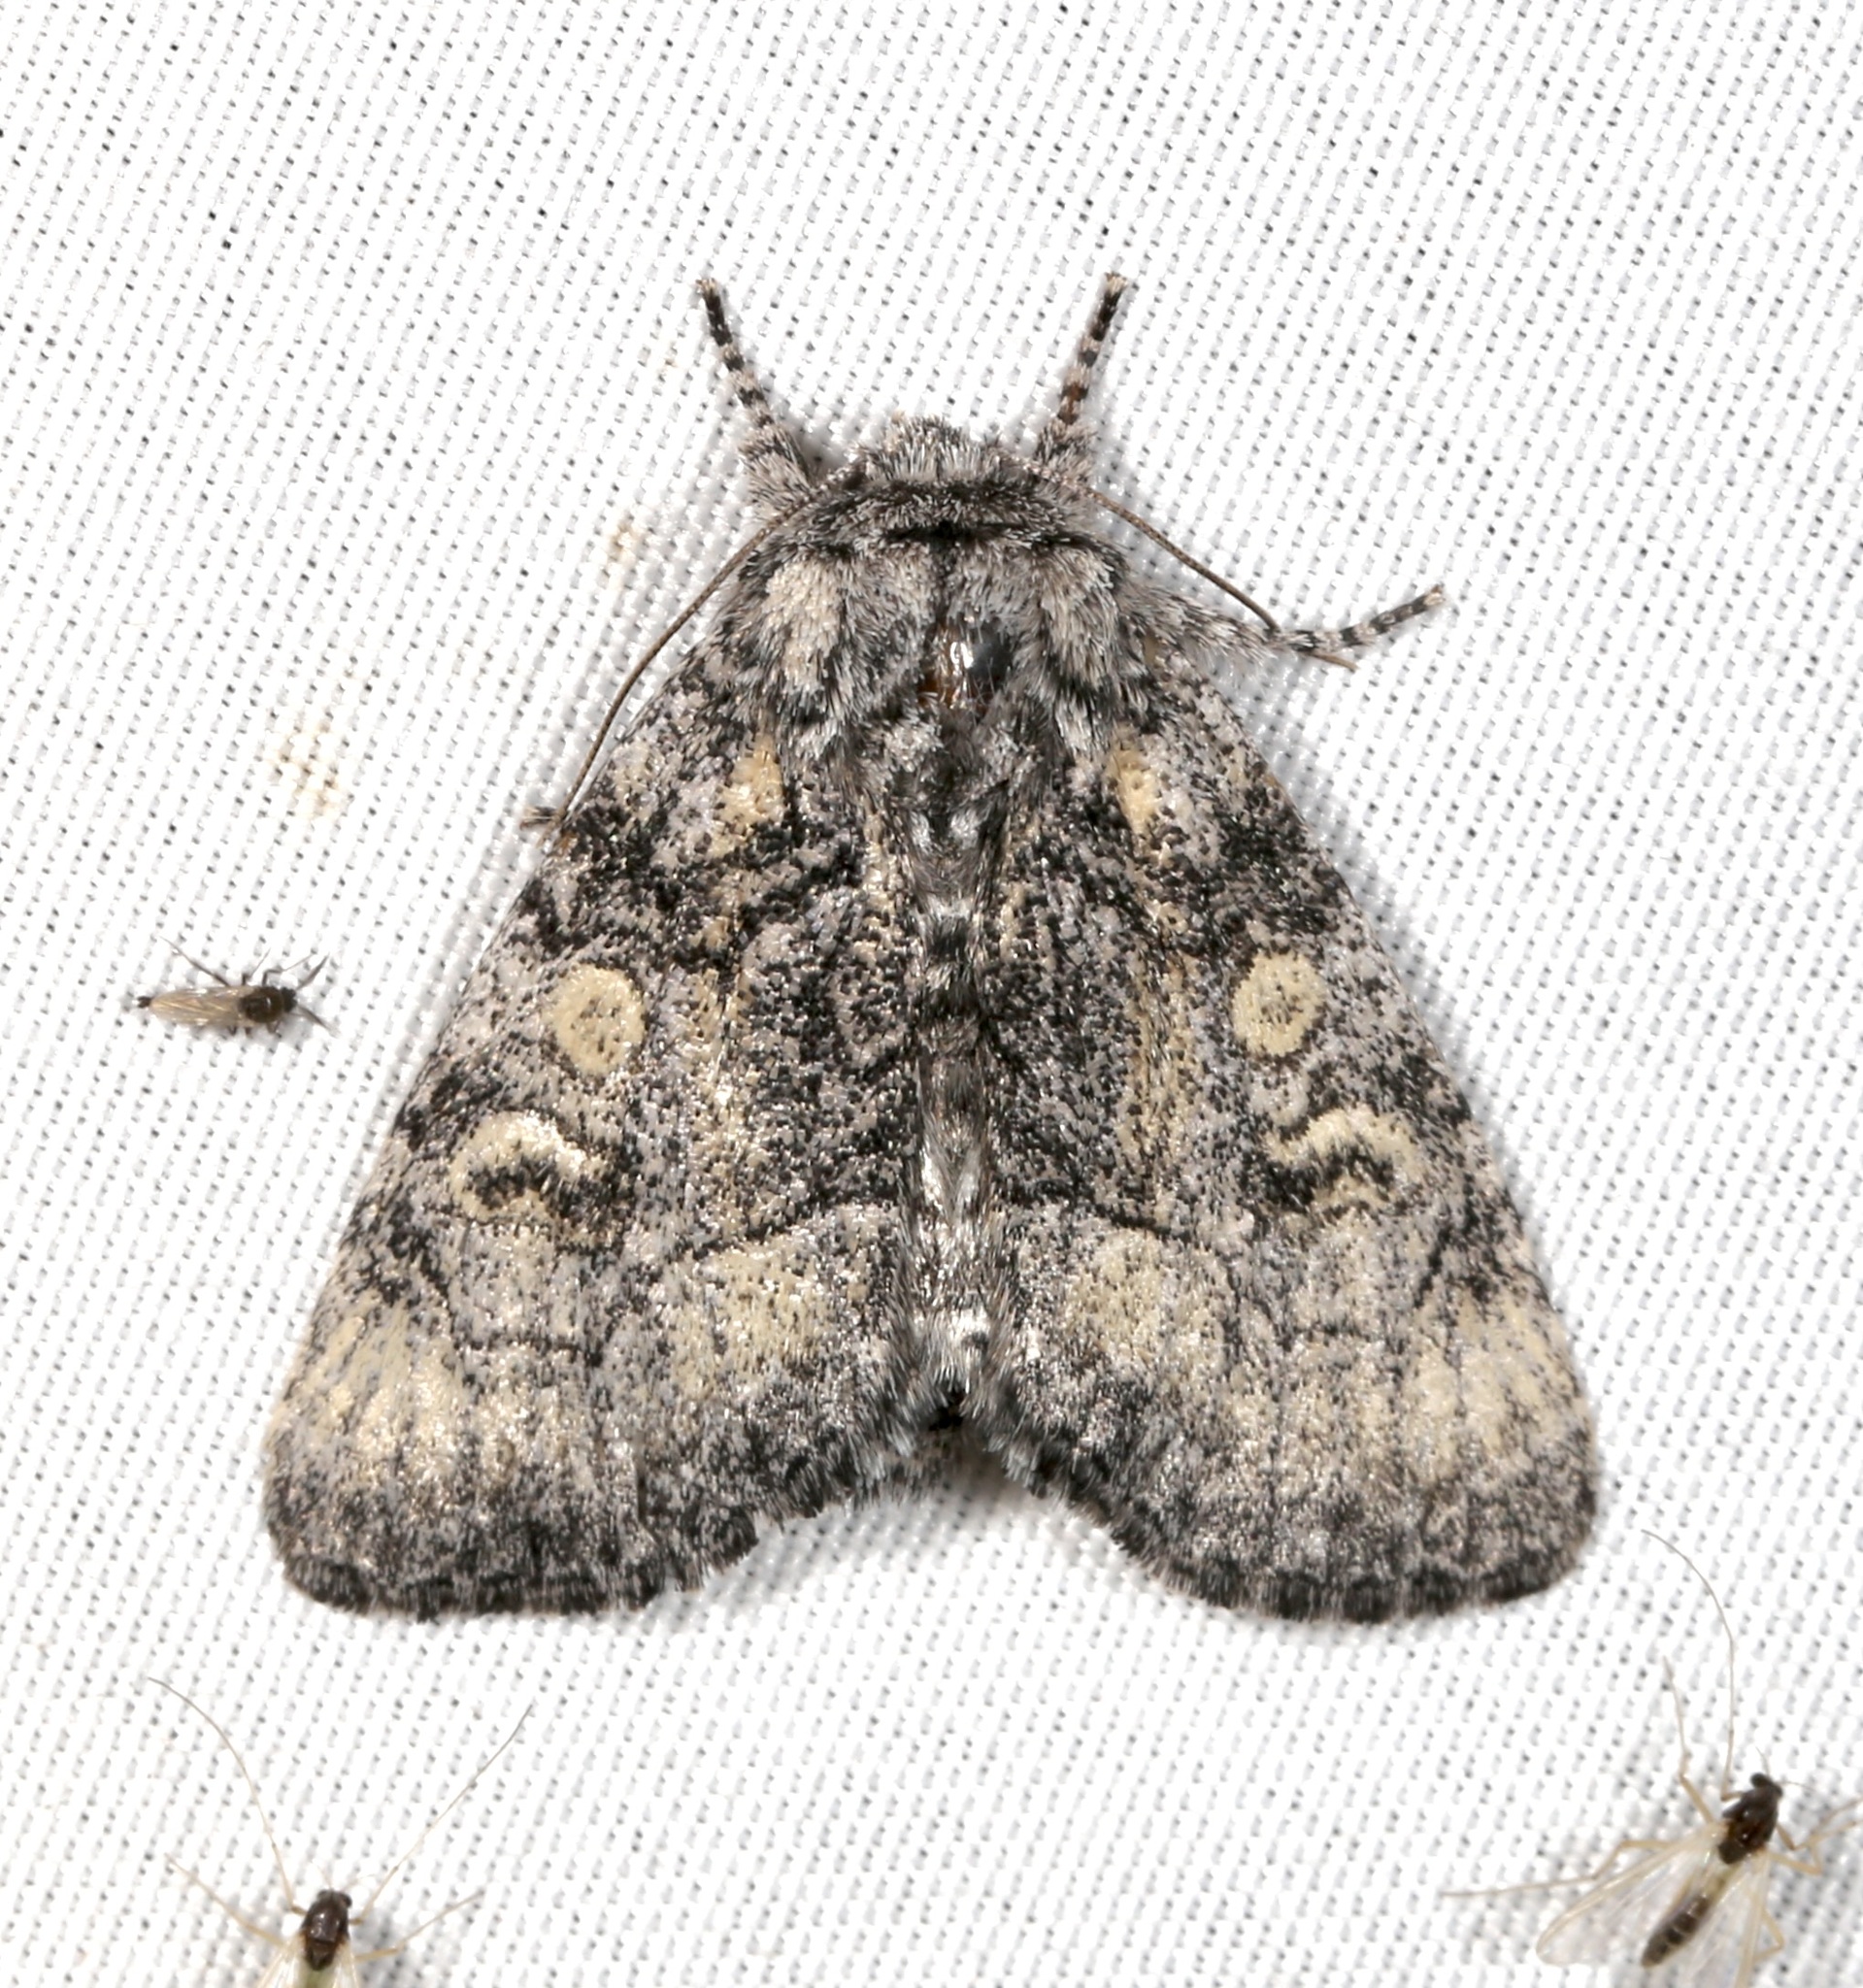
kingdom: Animalia
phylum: Arthropoda
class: Insecta
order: Lepidoptera
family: Noctuidae
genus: Raphia
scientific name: Raphia frater
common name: Brother
